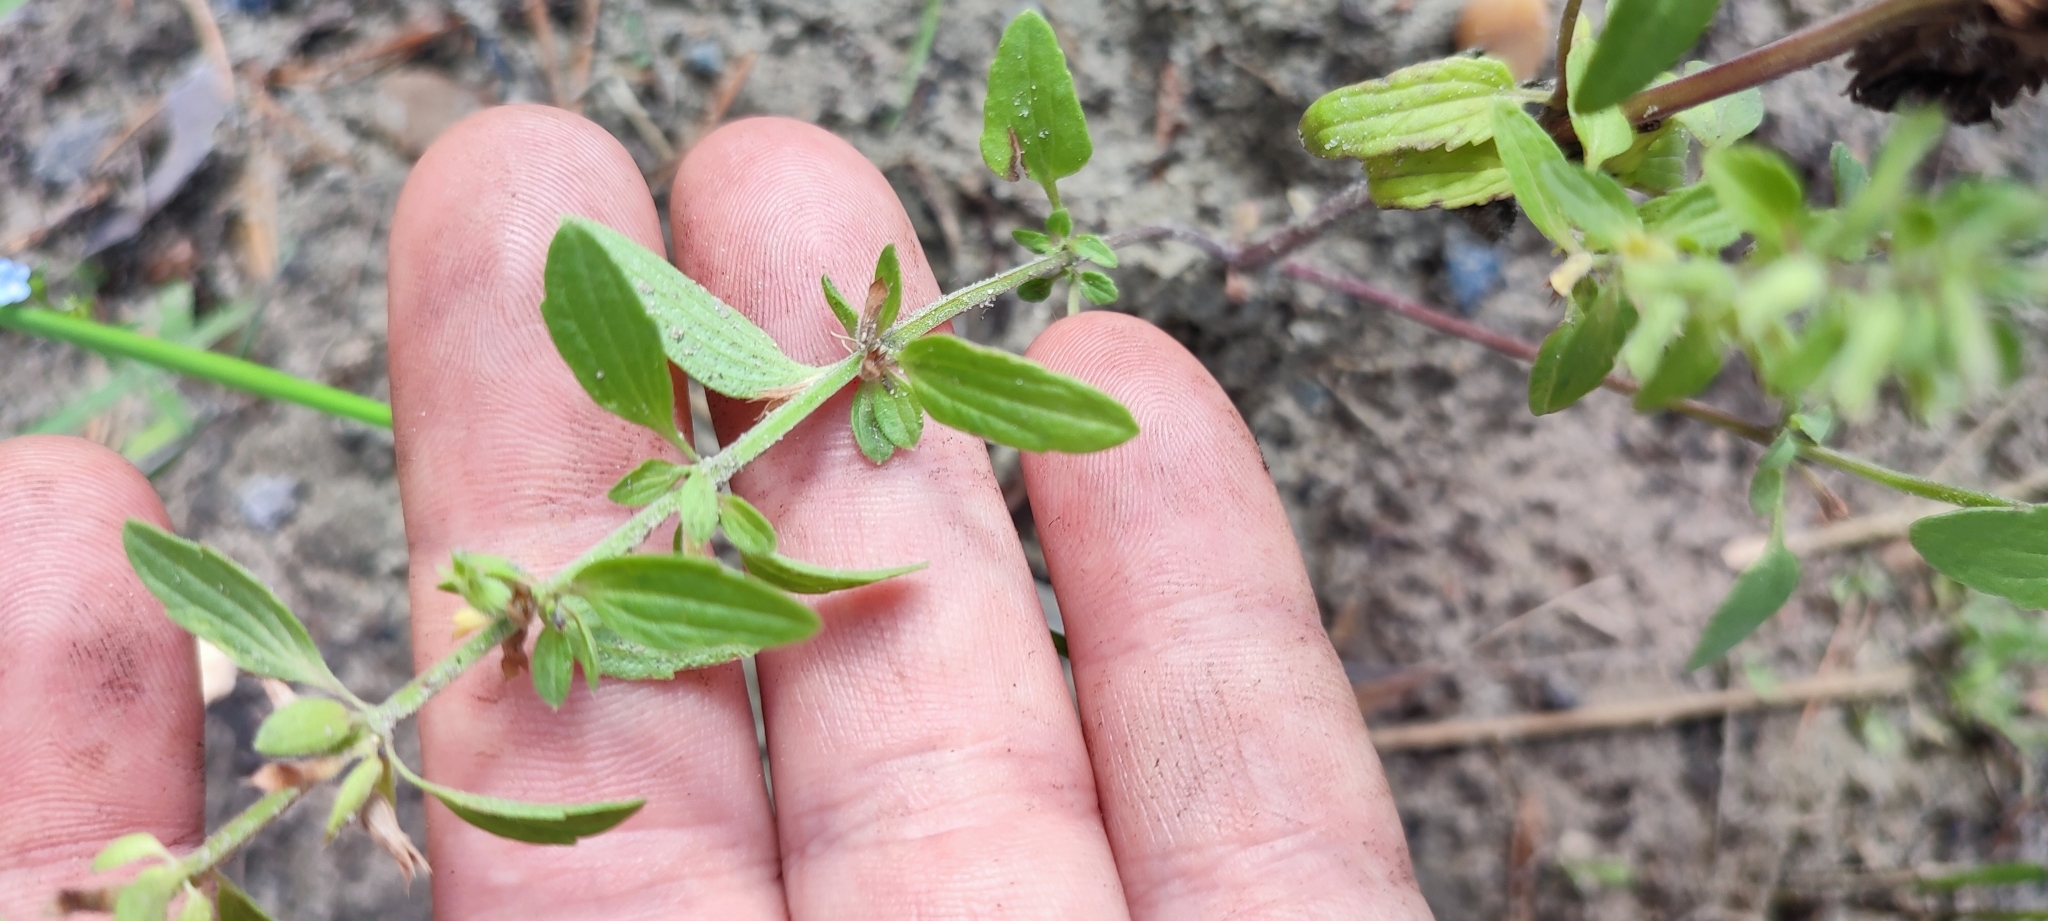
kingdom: Plantae
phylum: Tracheophyta
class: Magnoliopsida
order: Lamiales
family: Lamiaceae
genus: Dracocephalum
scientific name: Dracocephalum thymiflorum
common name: Thymeleaf dragonhead
